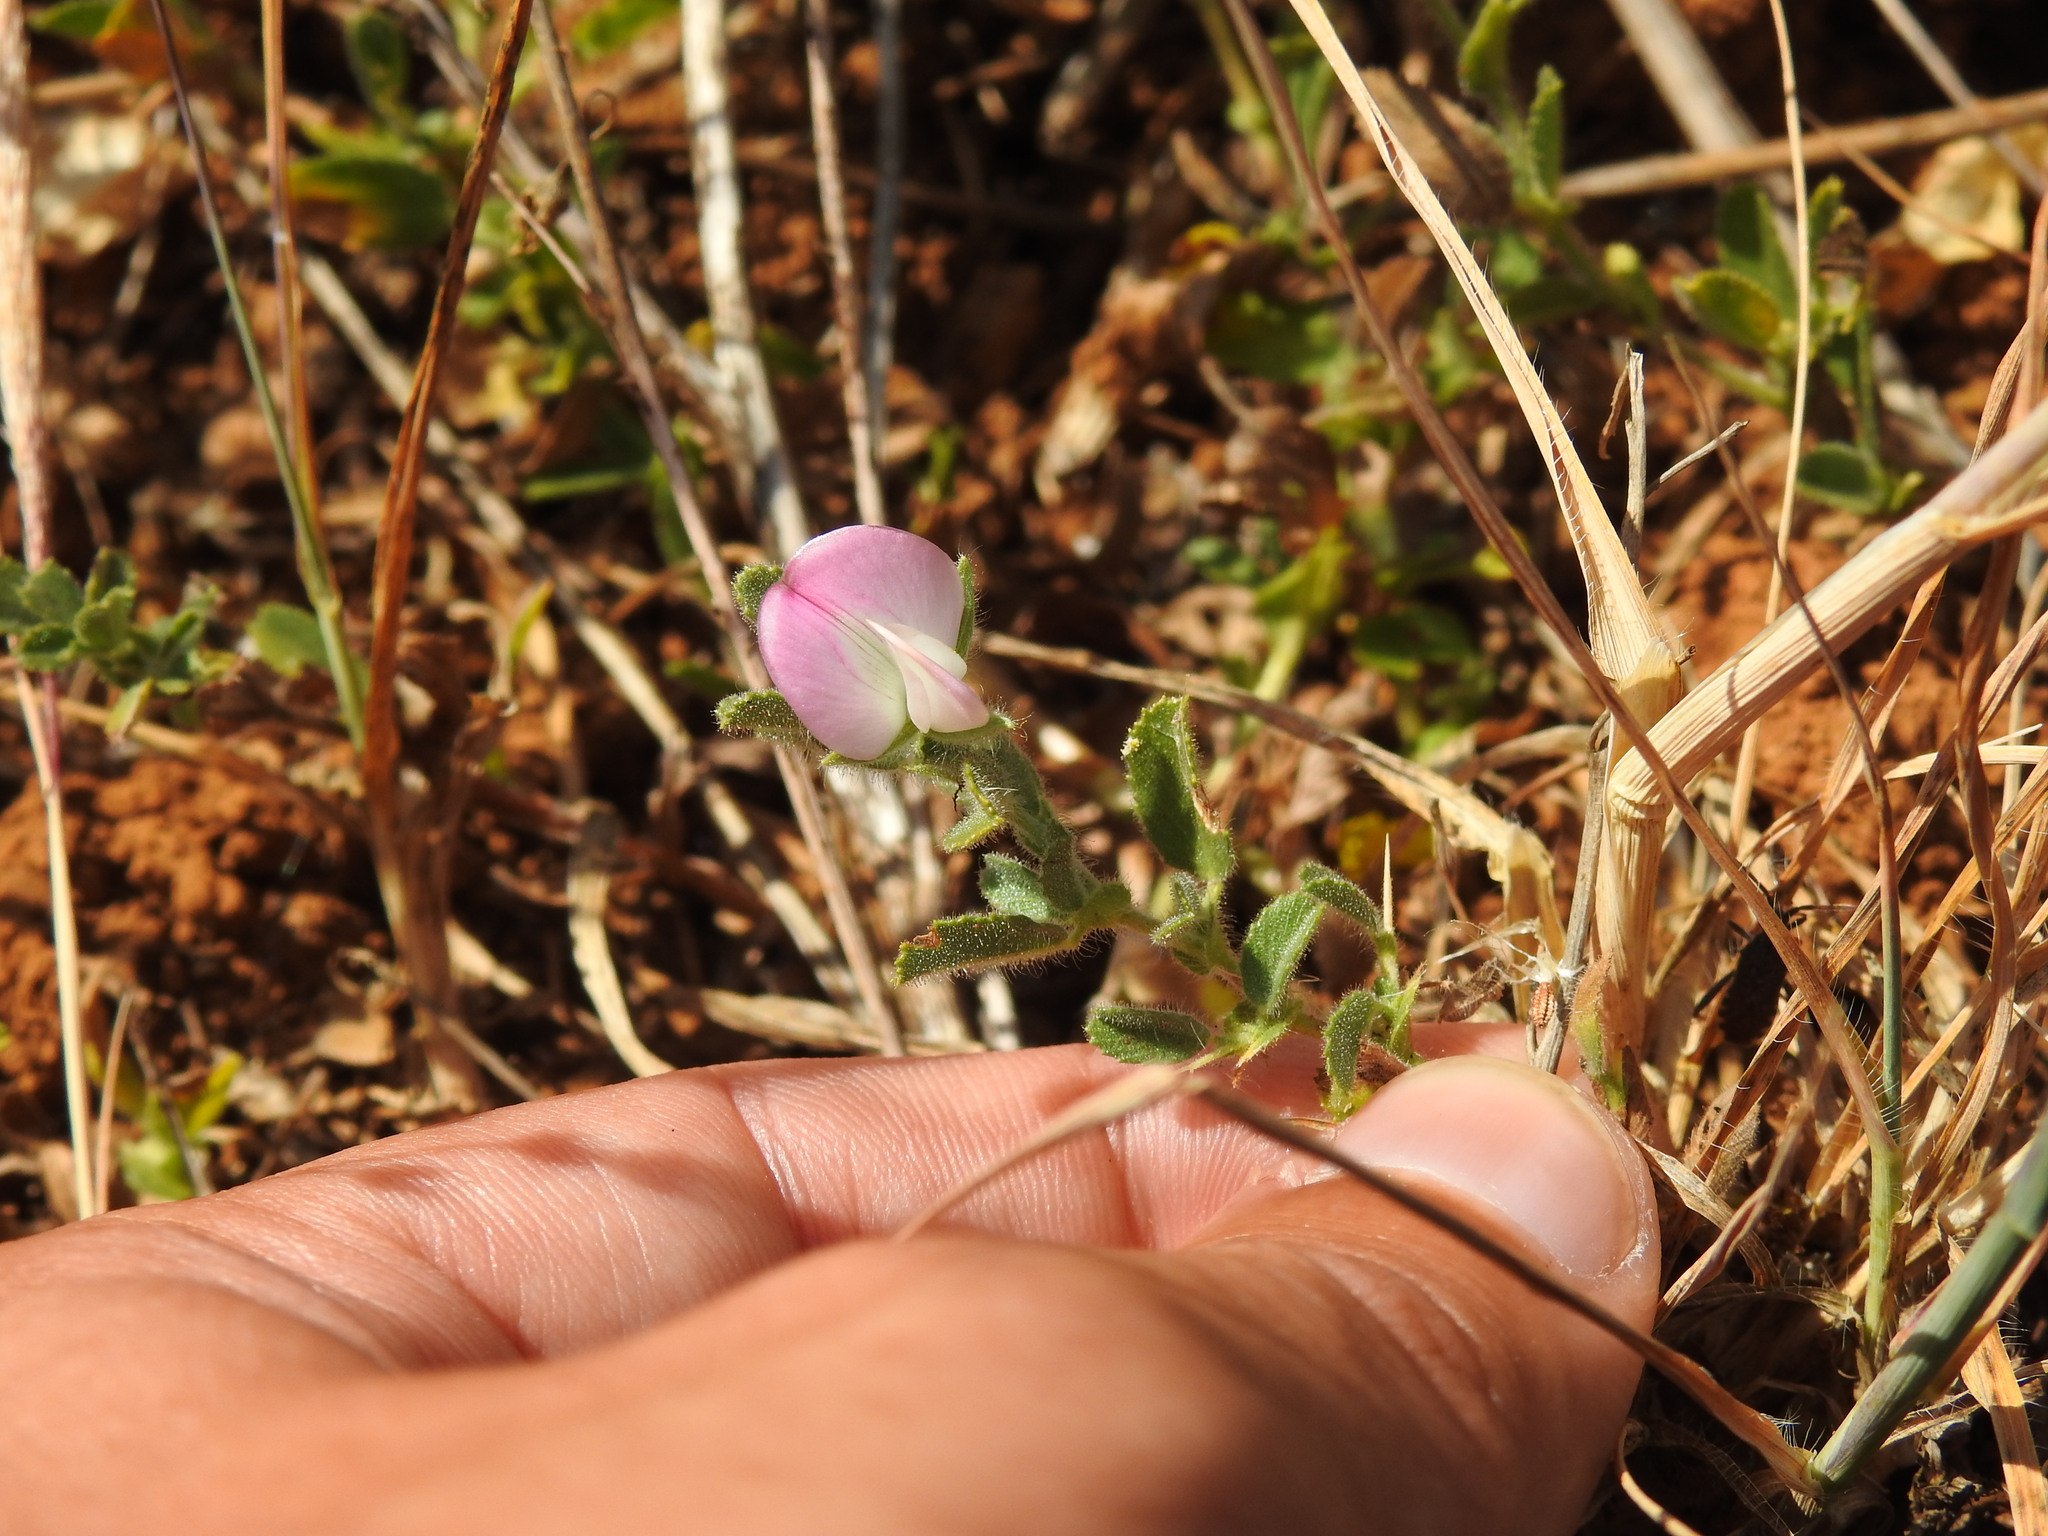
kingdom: Plantae
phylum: Tracheophyta
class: Magnoliopsida
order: Fabales
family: Fabaceae
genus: Ononis
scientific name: Ononis spinosa
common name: Spiny restharrow
